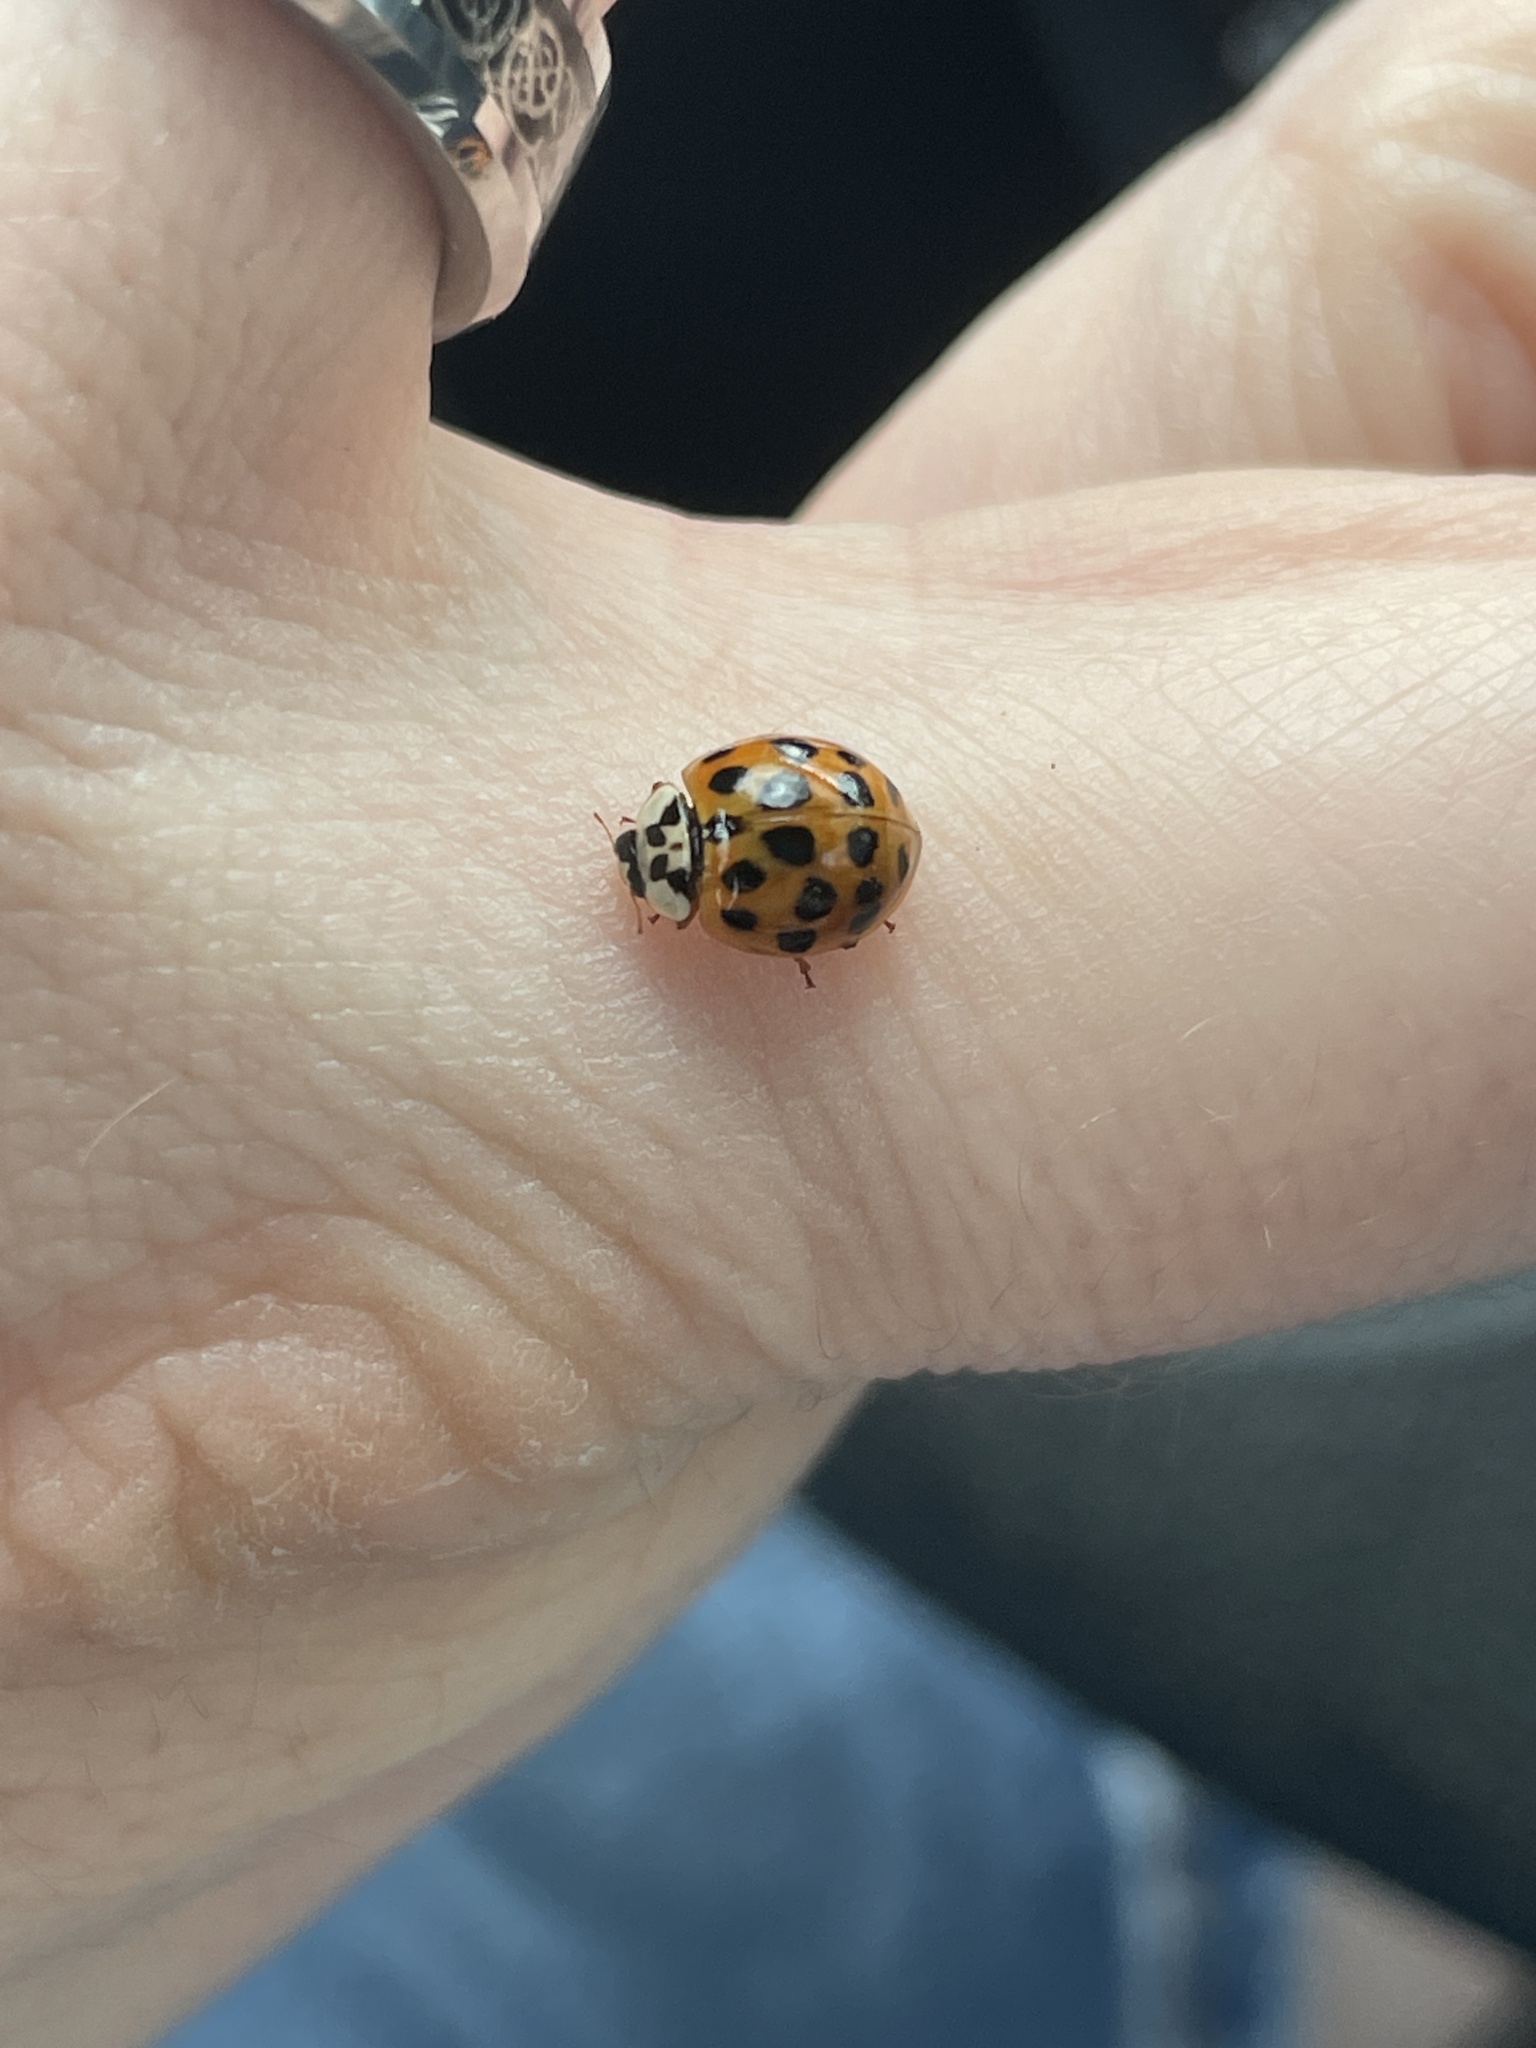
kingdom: Animalia
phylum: Arthropoda
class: Insecta
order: Coleoptera
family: Coccinellidae
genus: Harmonia
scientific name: Harmonia axyridis
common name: Harlequin ladybird
